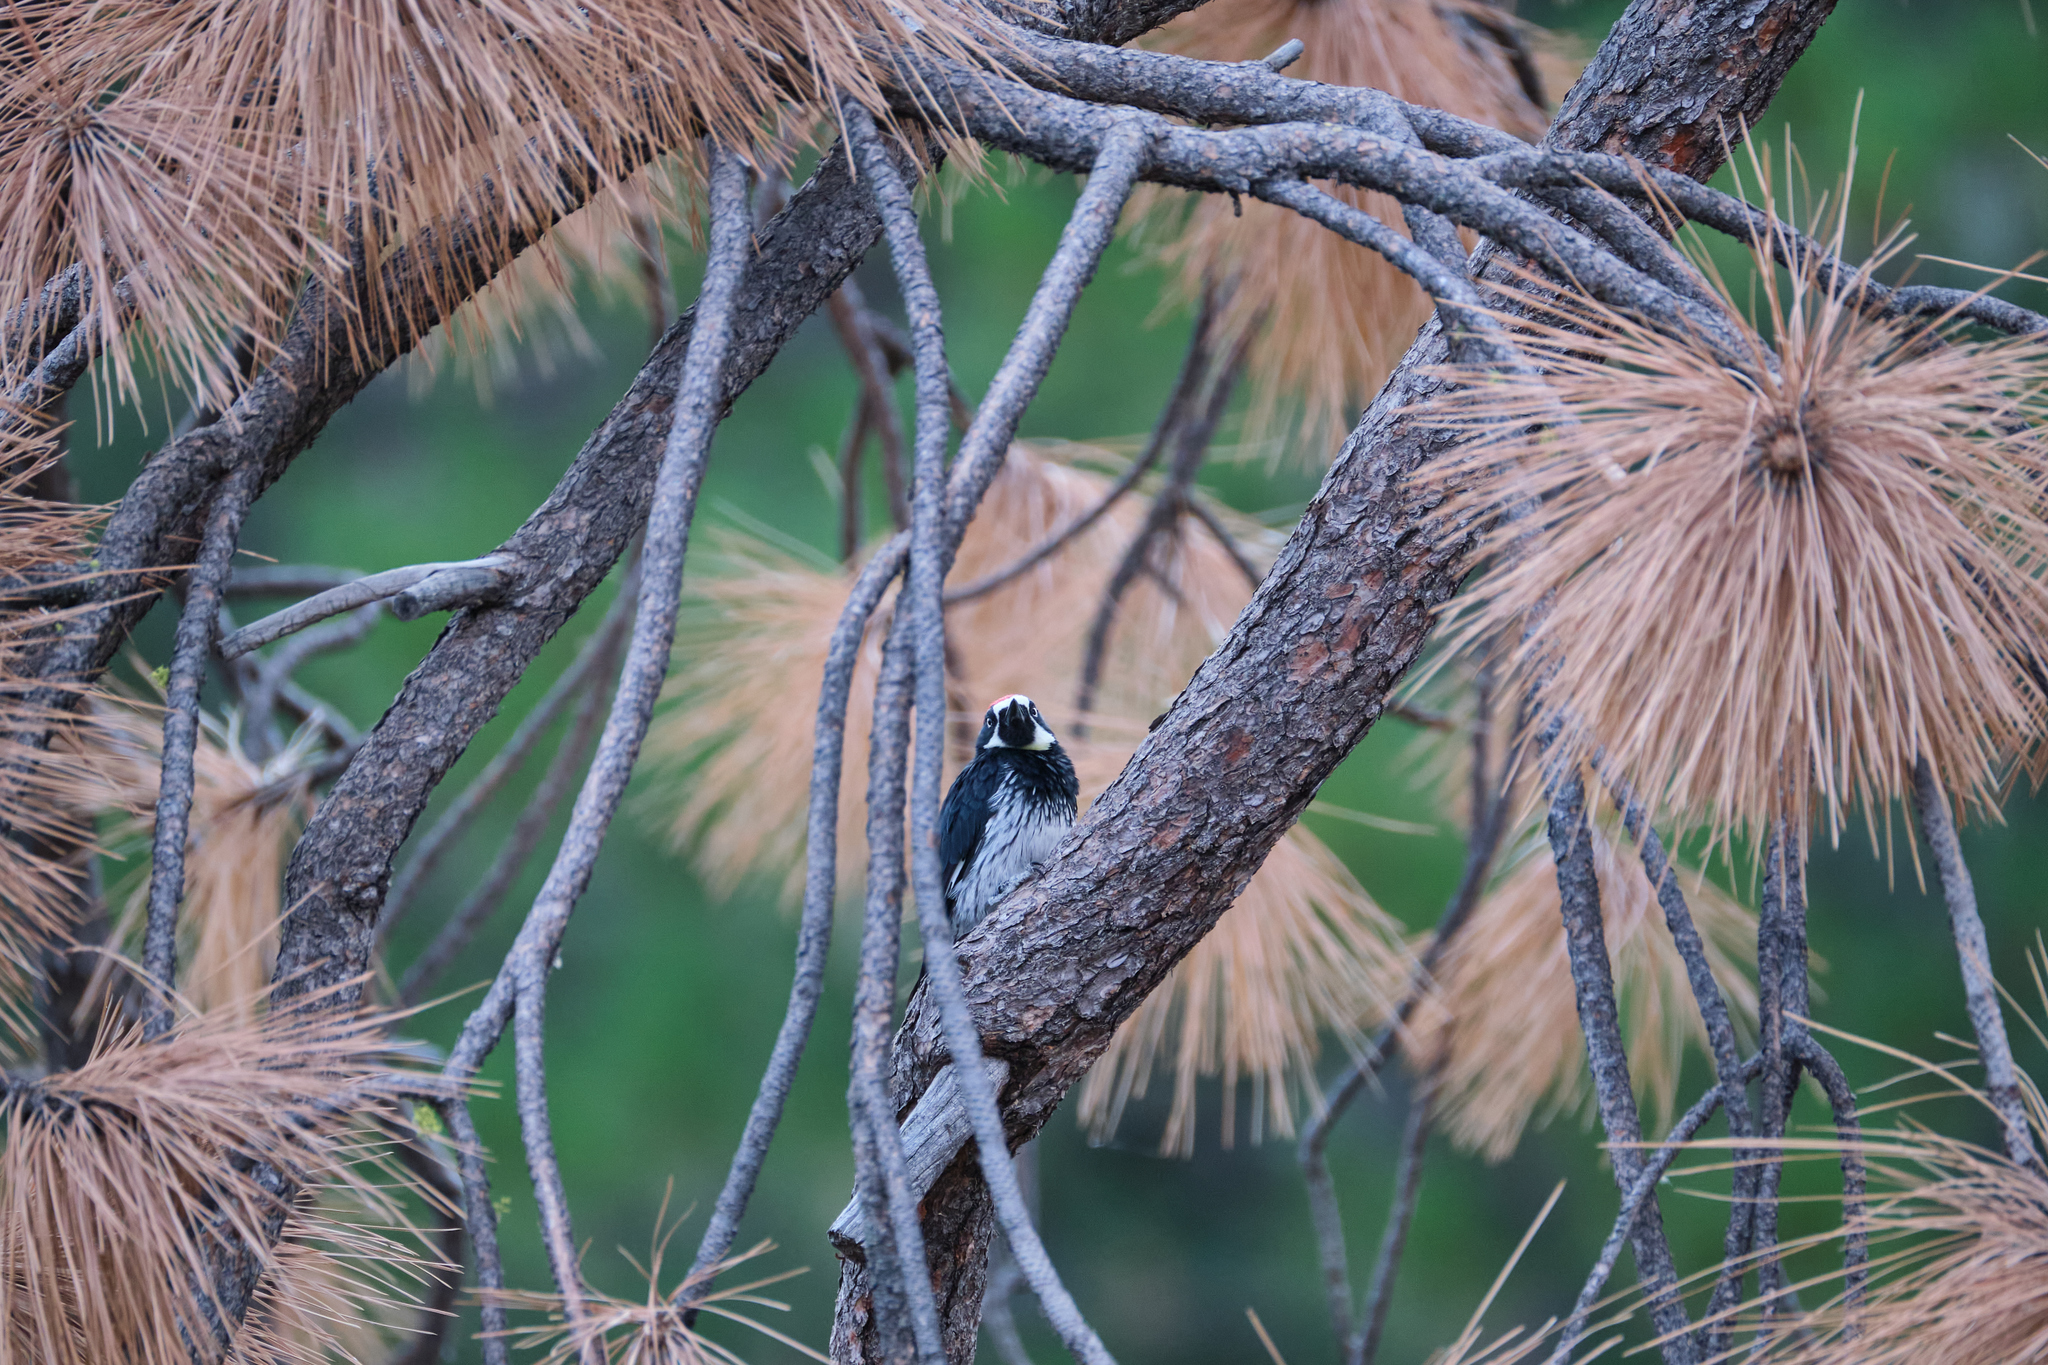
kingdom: Animalia
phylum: Chordata
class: Aves
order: Piciformes
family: Picidae
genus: Melanerpes
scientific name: Melanerpes formicivorus
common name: Acorn woodpecker
